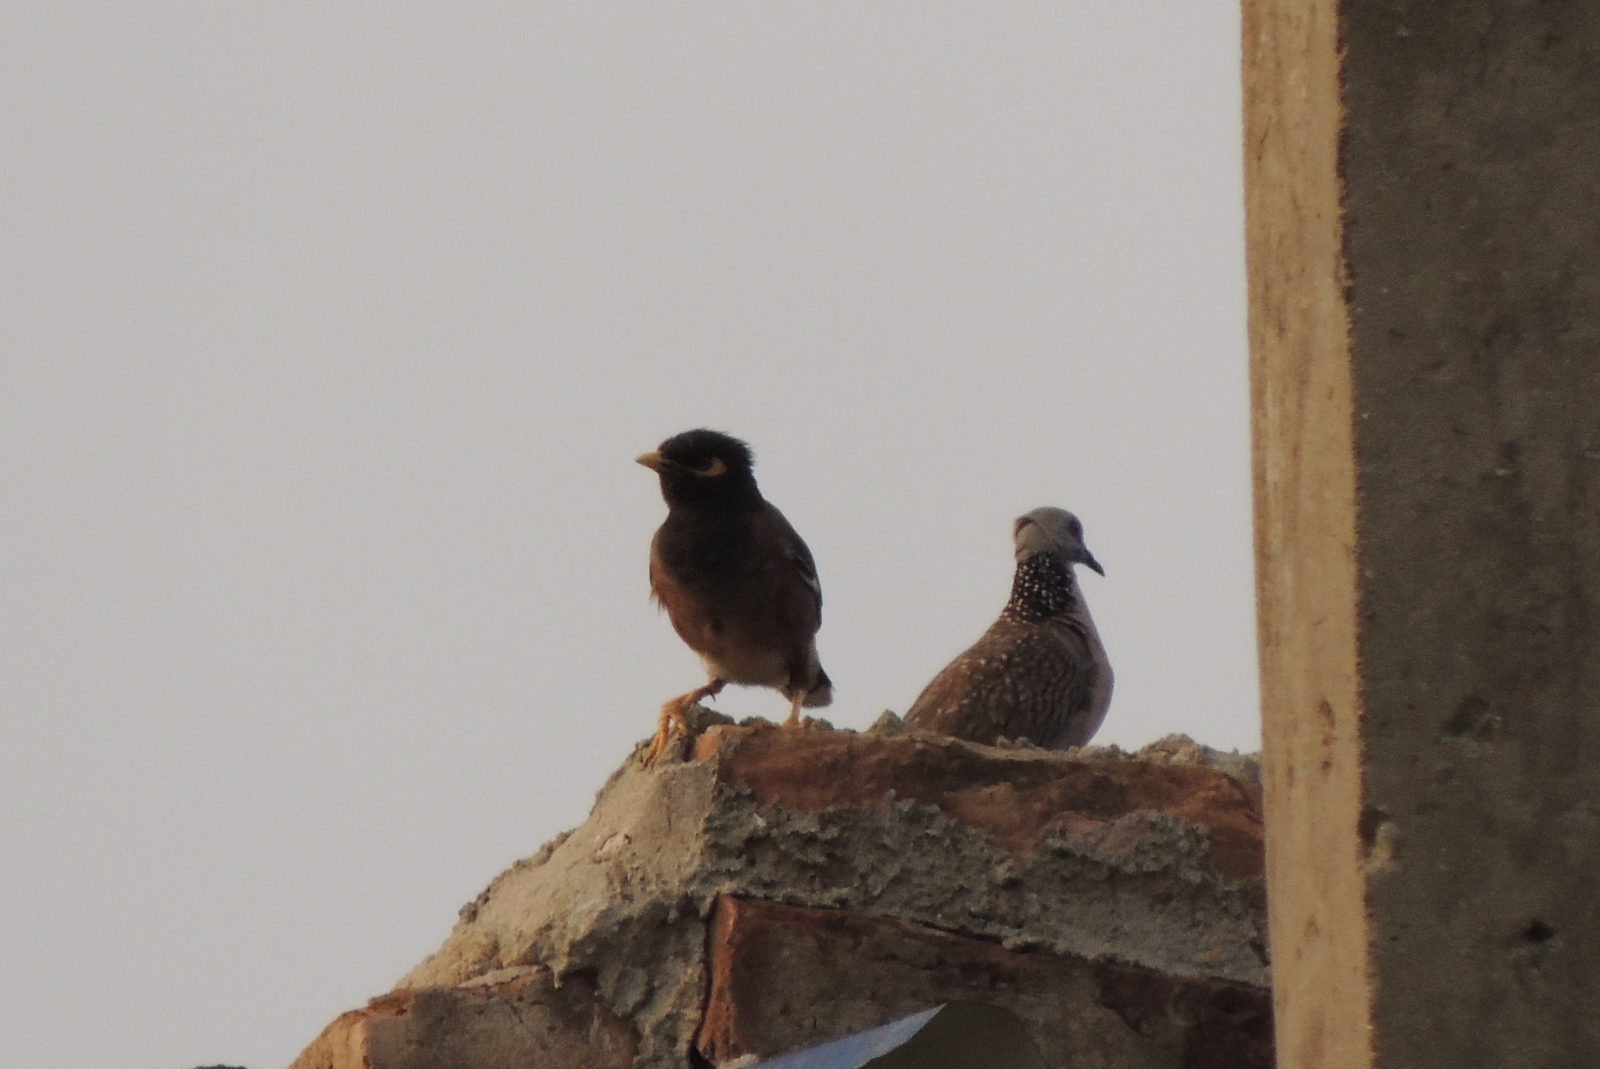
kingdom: Animalia
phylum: Chordata
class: Aves
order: Passeriformes
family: Sturnidae
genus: Acridotheres
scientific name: Acridotheres tristis
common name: Common myna
